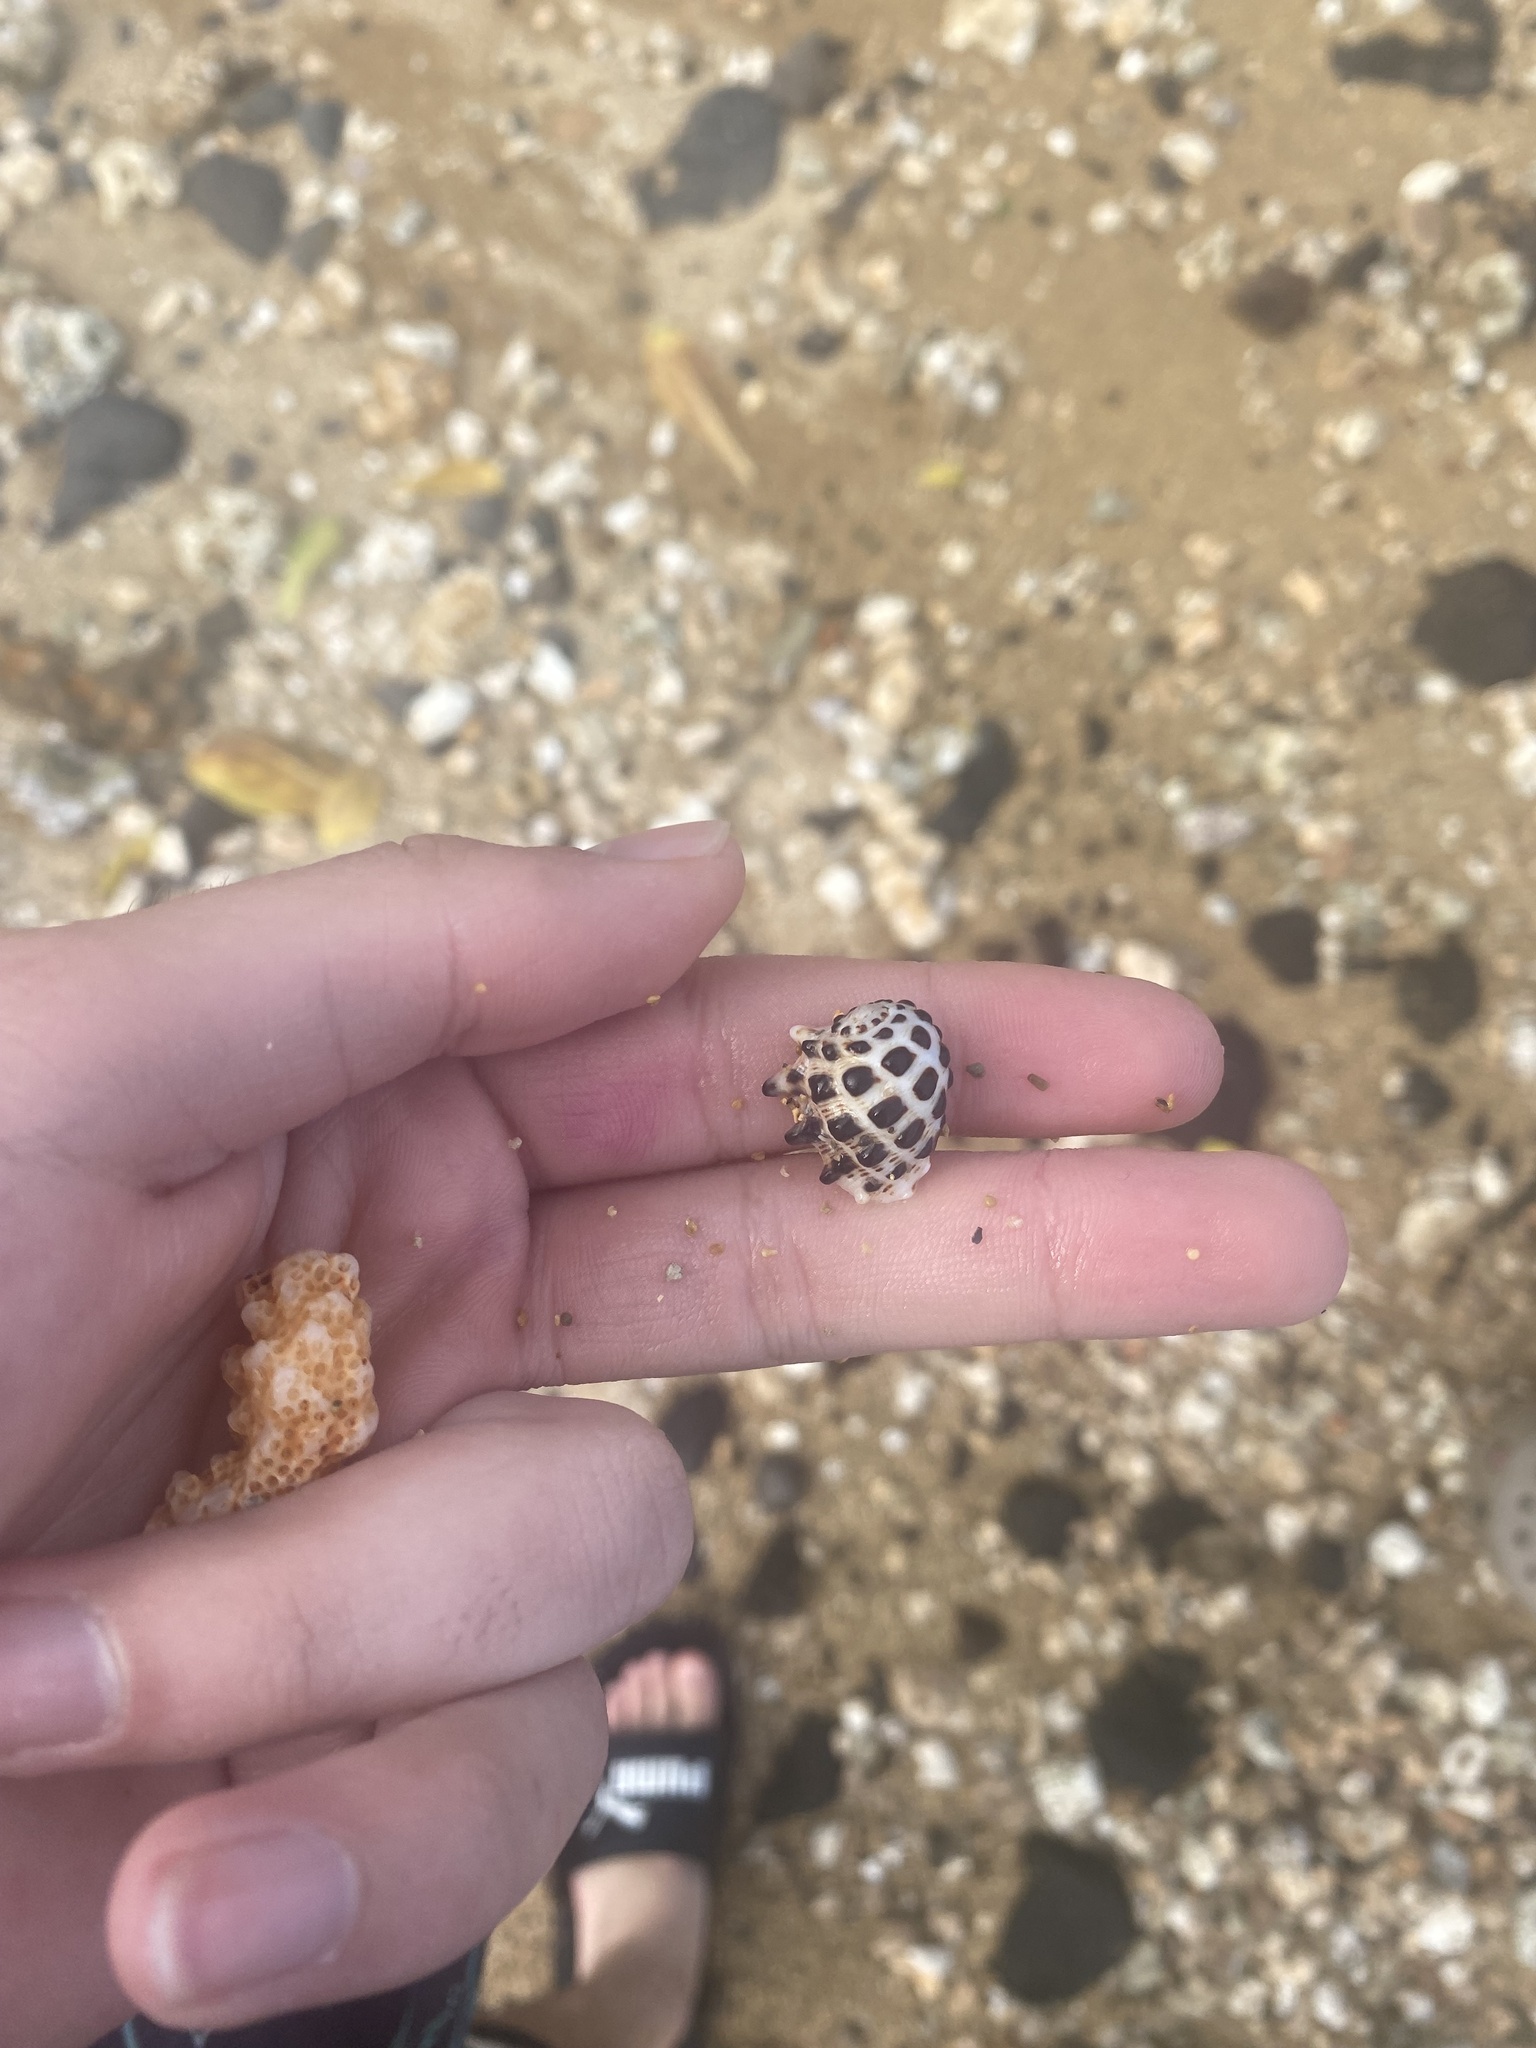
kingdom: Animalia
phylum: Mollusca
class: Gastropoda
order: Neogastropoda
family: Muricidae
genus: Drupa
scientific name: Drupa ricinus
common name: White-lipped castor bean
